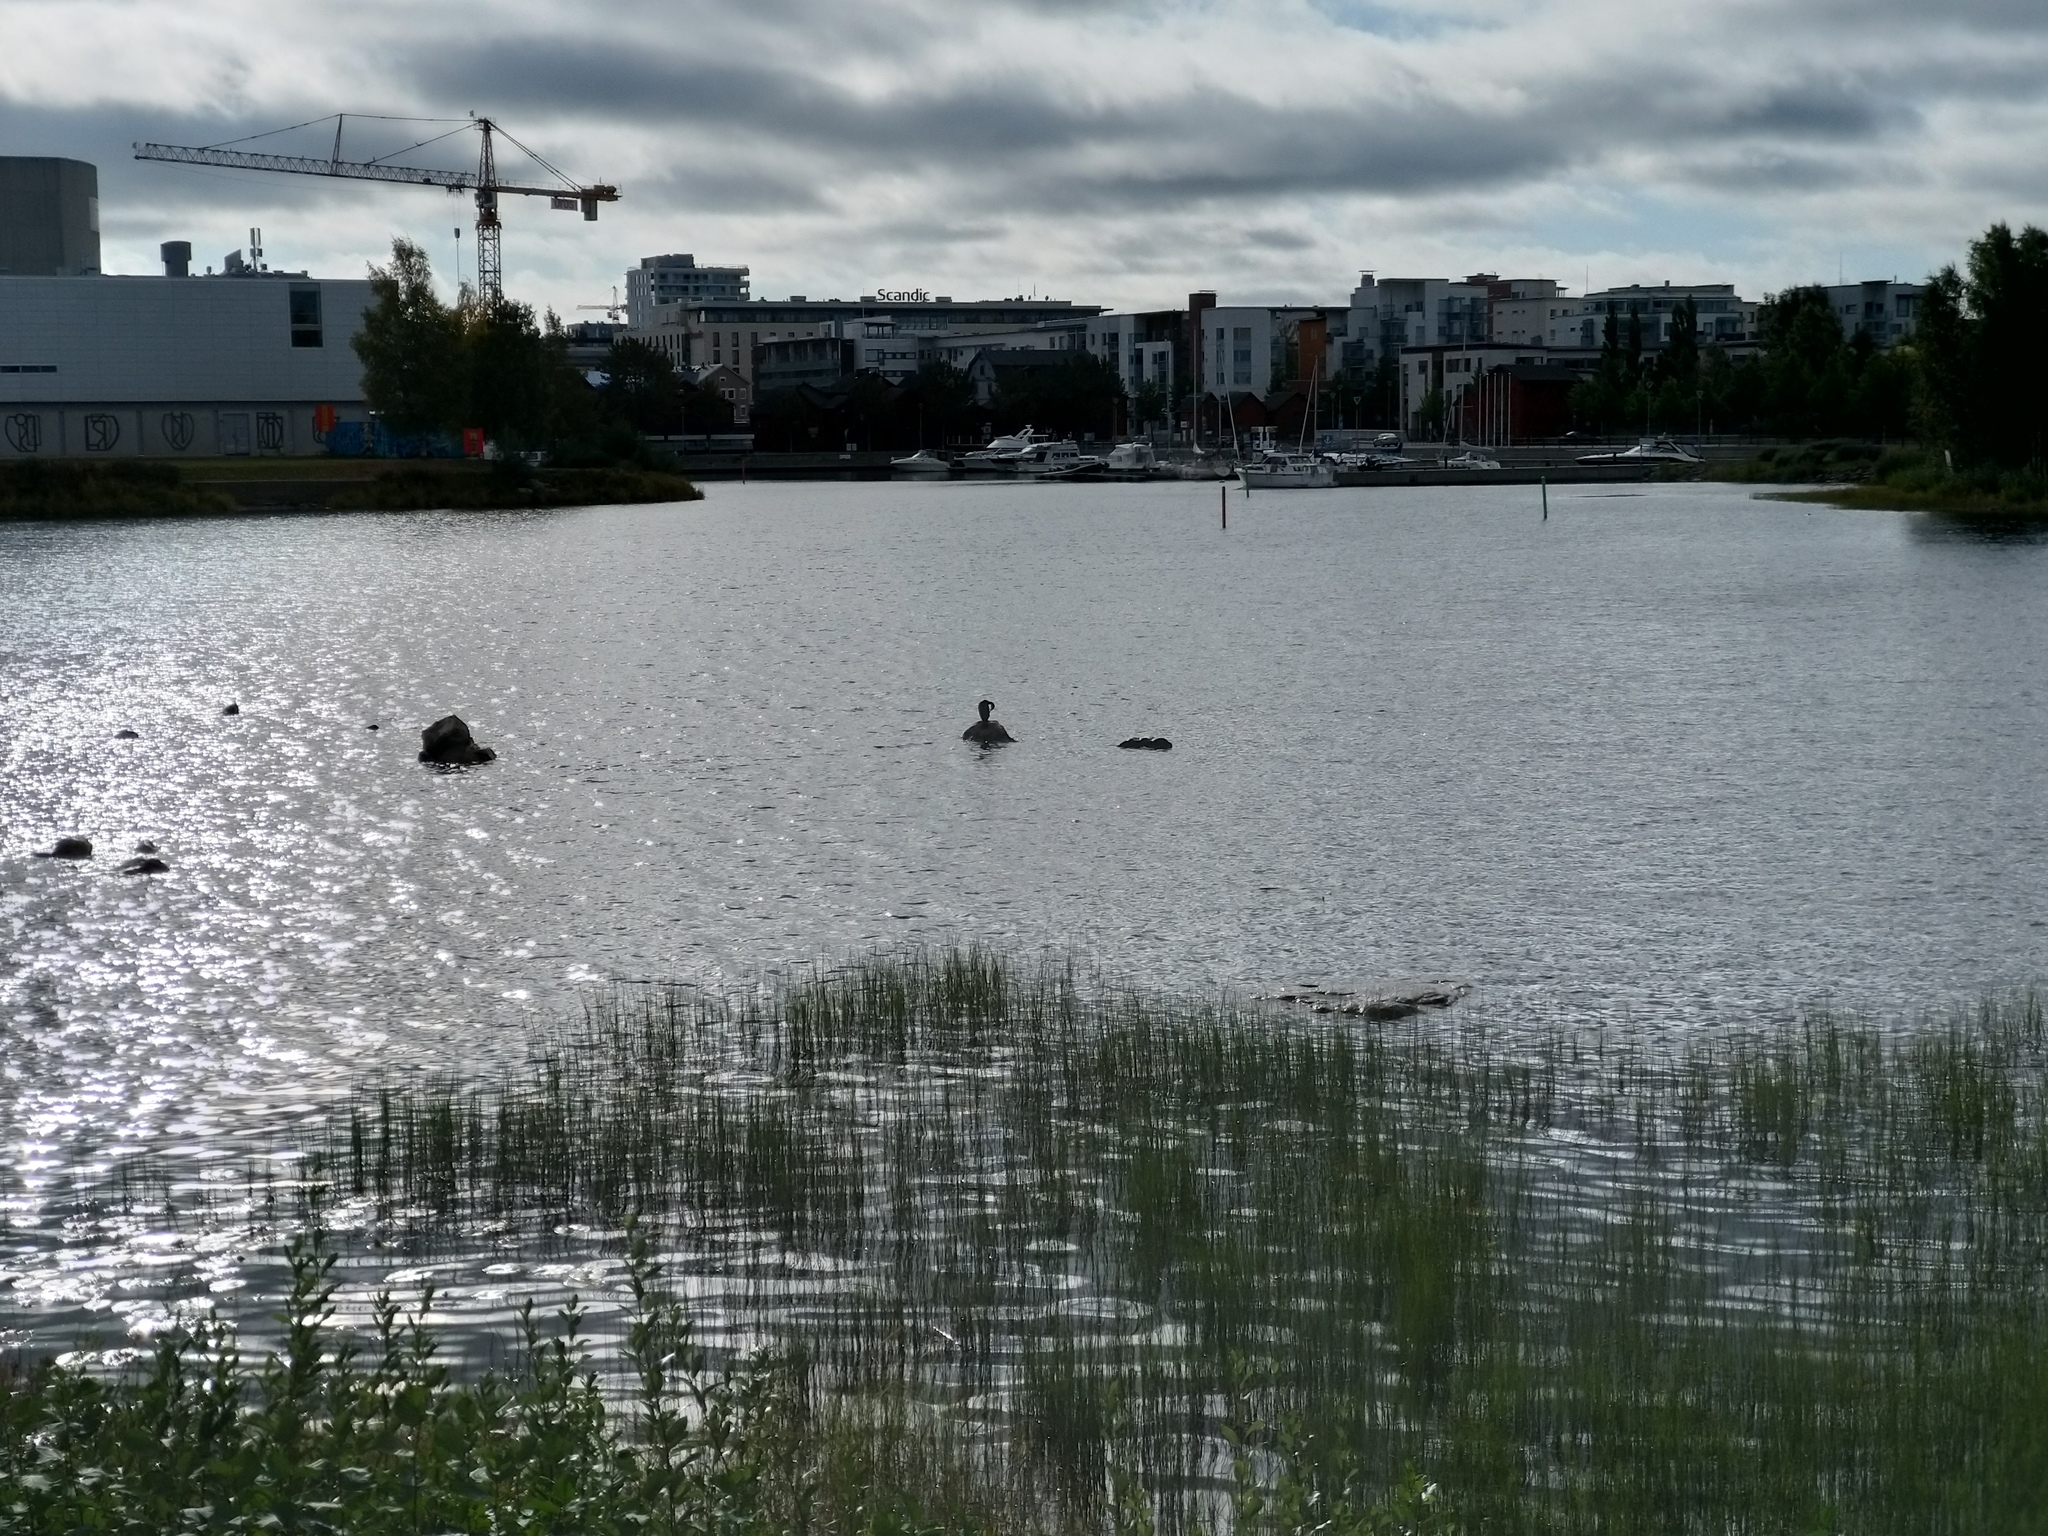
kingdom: Animalia
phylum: Chordata
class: Aves
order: Suliformes
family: Phalacrocoracidae
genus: Phalacrocorax
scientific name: Phalacrocorax carbo
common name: Great cormorant
